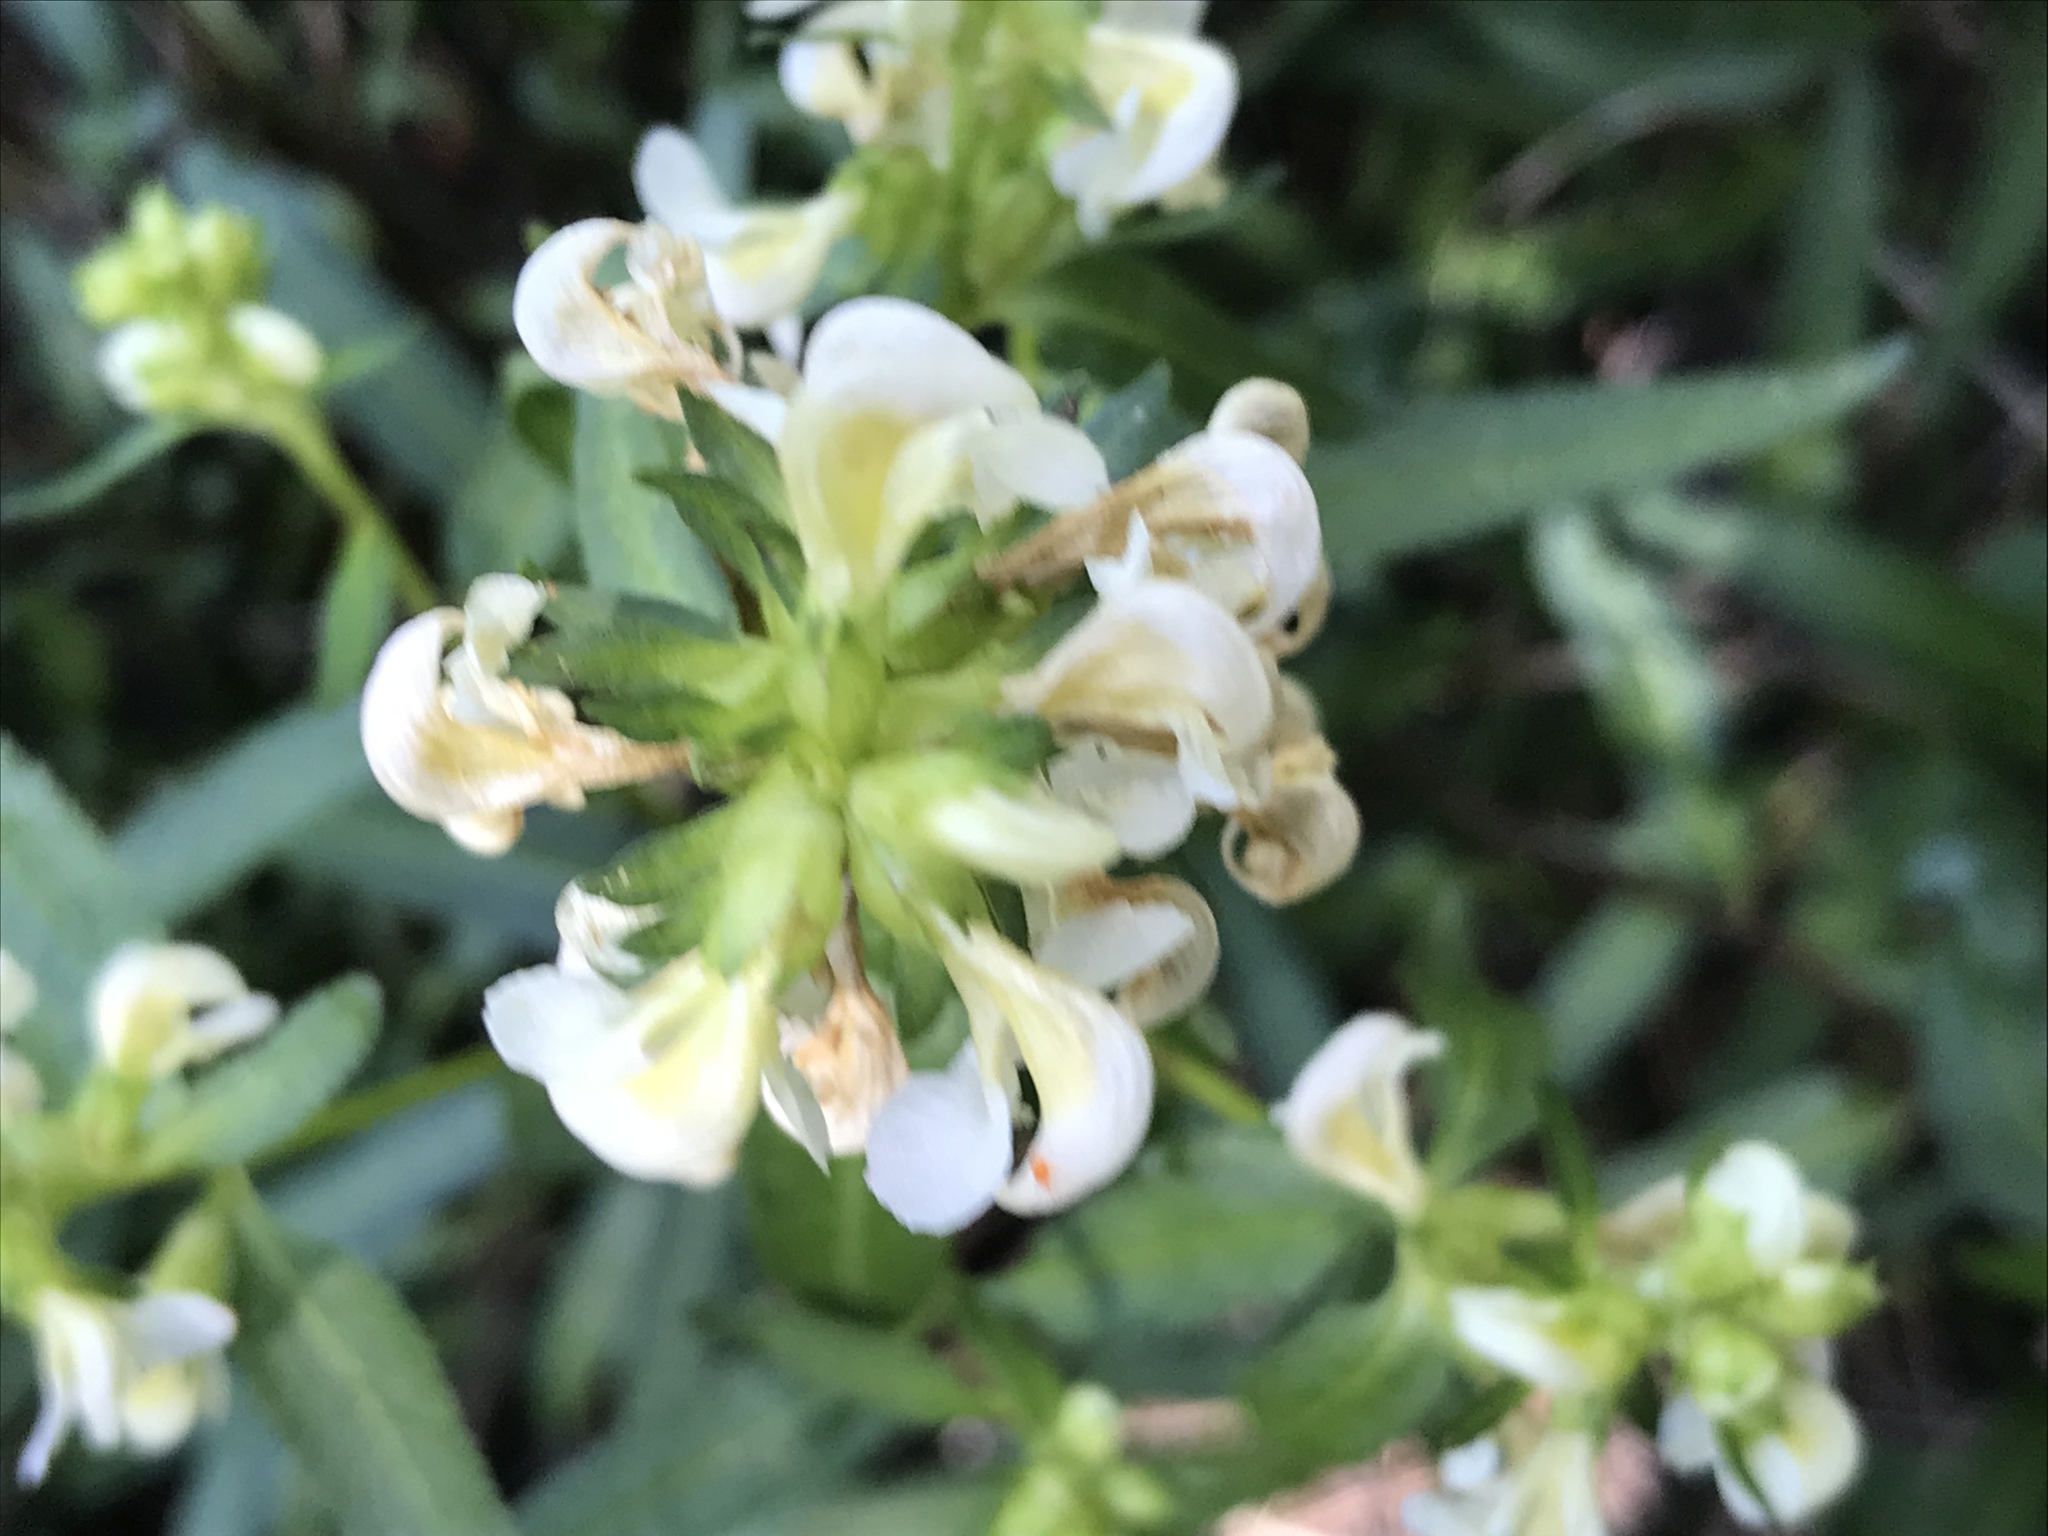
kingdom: Plantae
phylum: Tracheophyta
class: Magnoliopsida
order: Lamiales
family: Orobanchaceae
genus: Pedicularis
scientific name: Pedicularis racemosa
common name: Leafy lousewort
